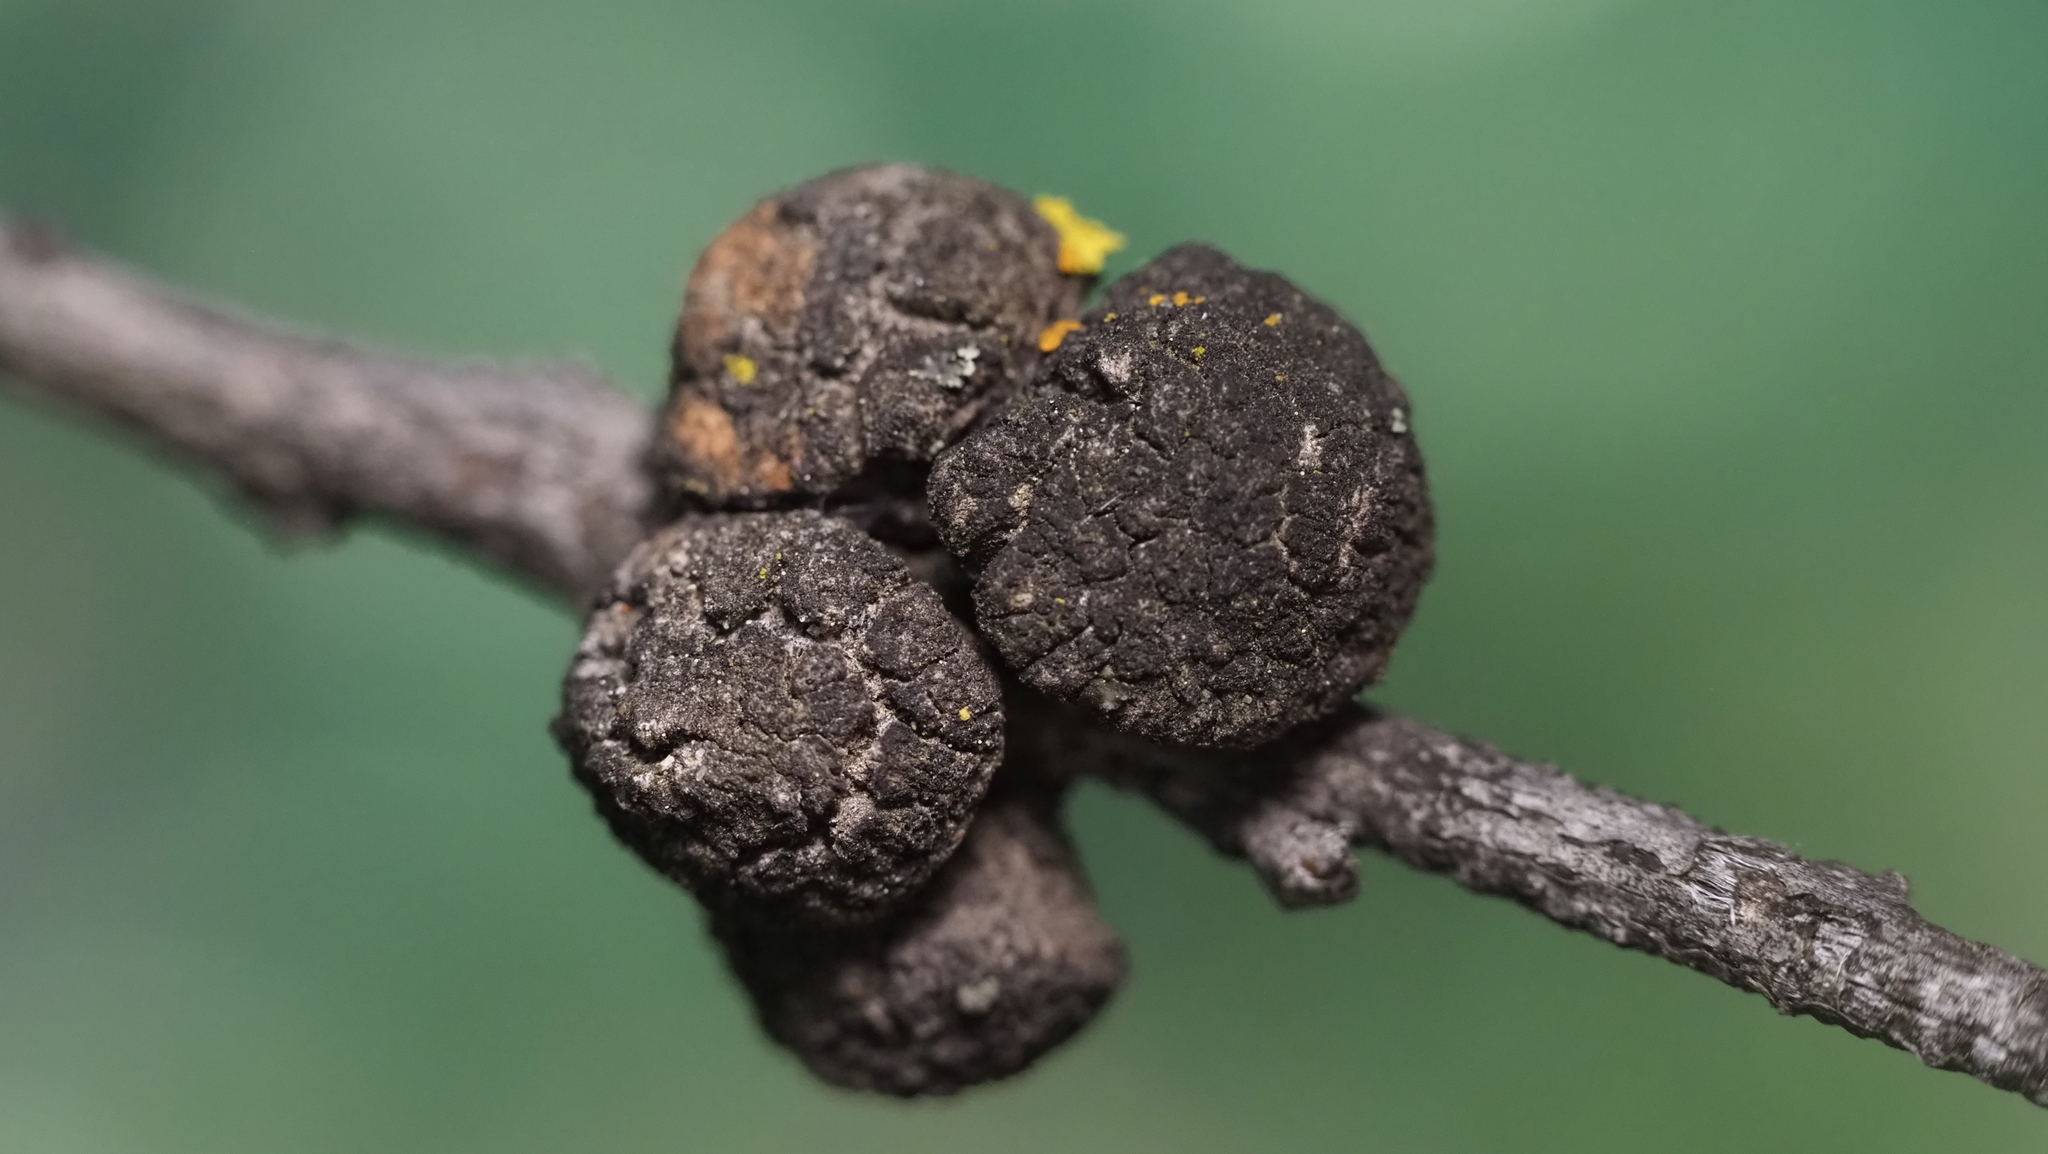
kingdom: Animalia
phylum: Arthropoda
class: Insecta
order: Hymenoptera
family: Cynipidae
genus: Disholcaspis
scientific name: Disholcaspis
